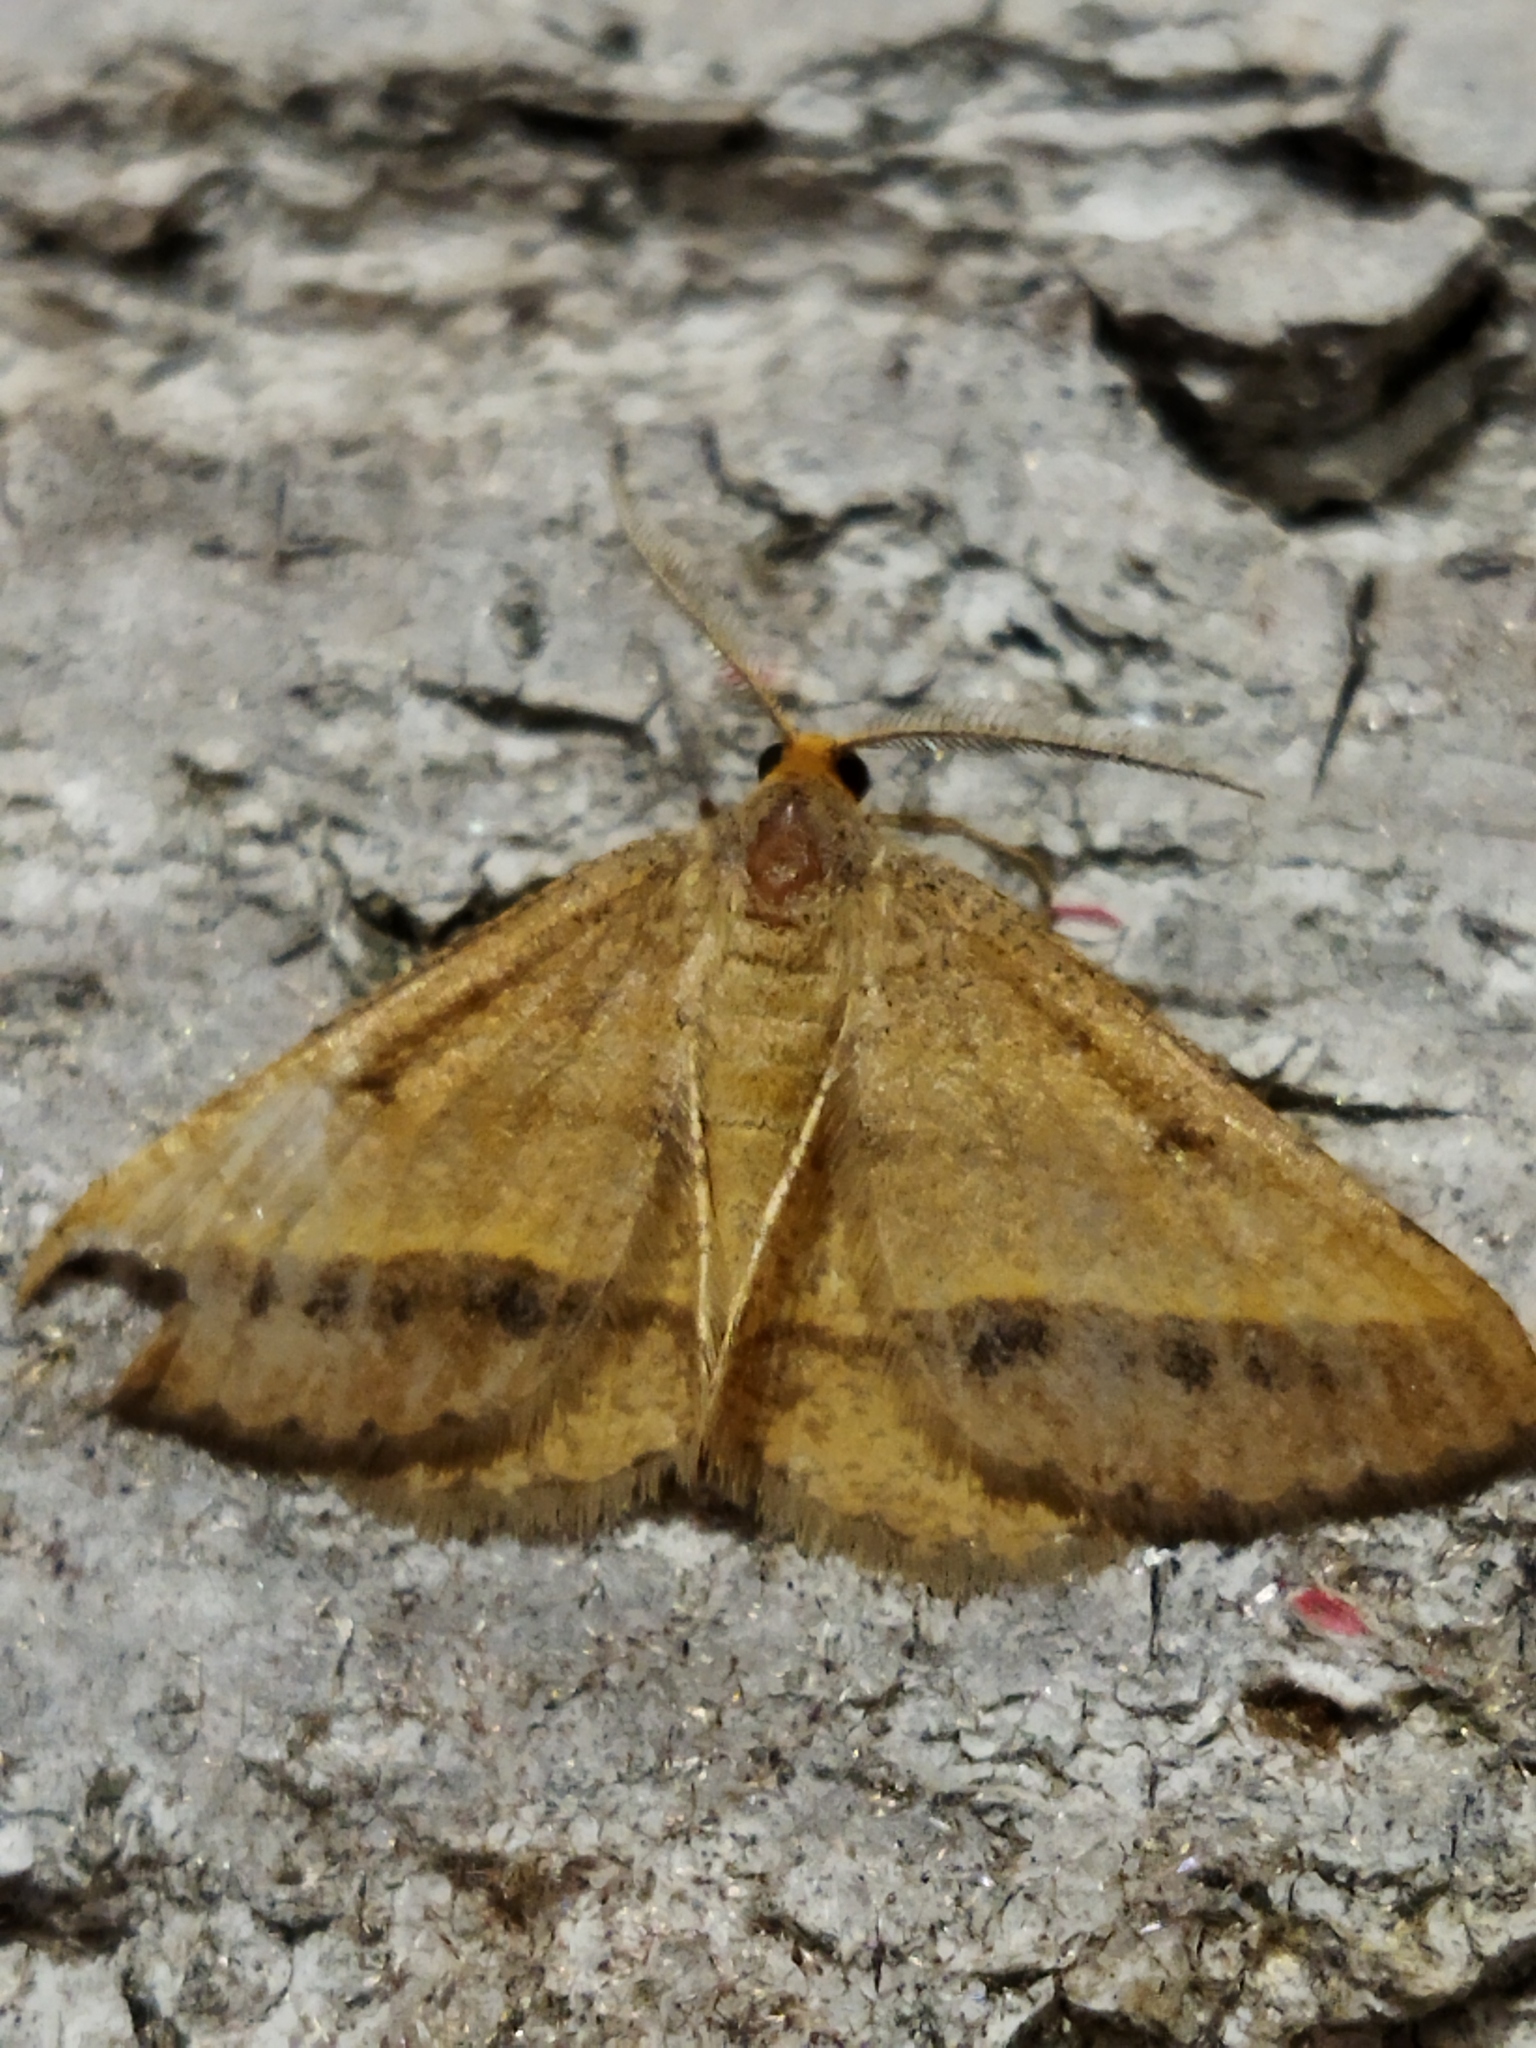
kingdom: Animalia
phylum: Arthropoda
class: Insecta
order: Lepidoptera
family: Geometridae
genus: Tephrina
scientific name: Tephrina arenacearia
